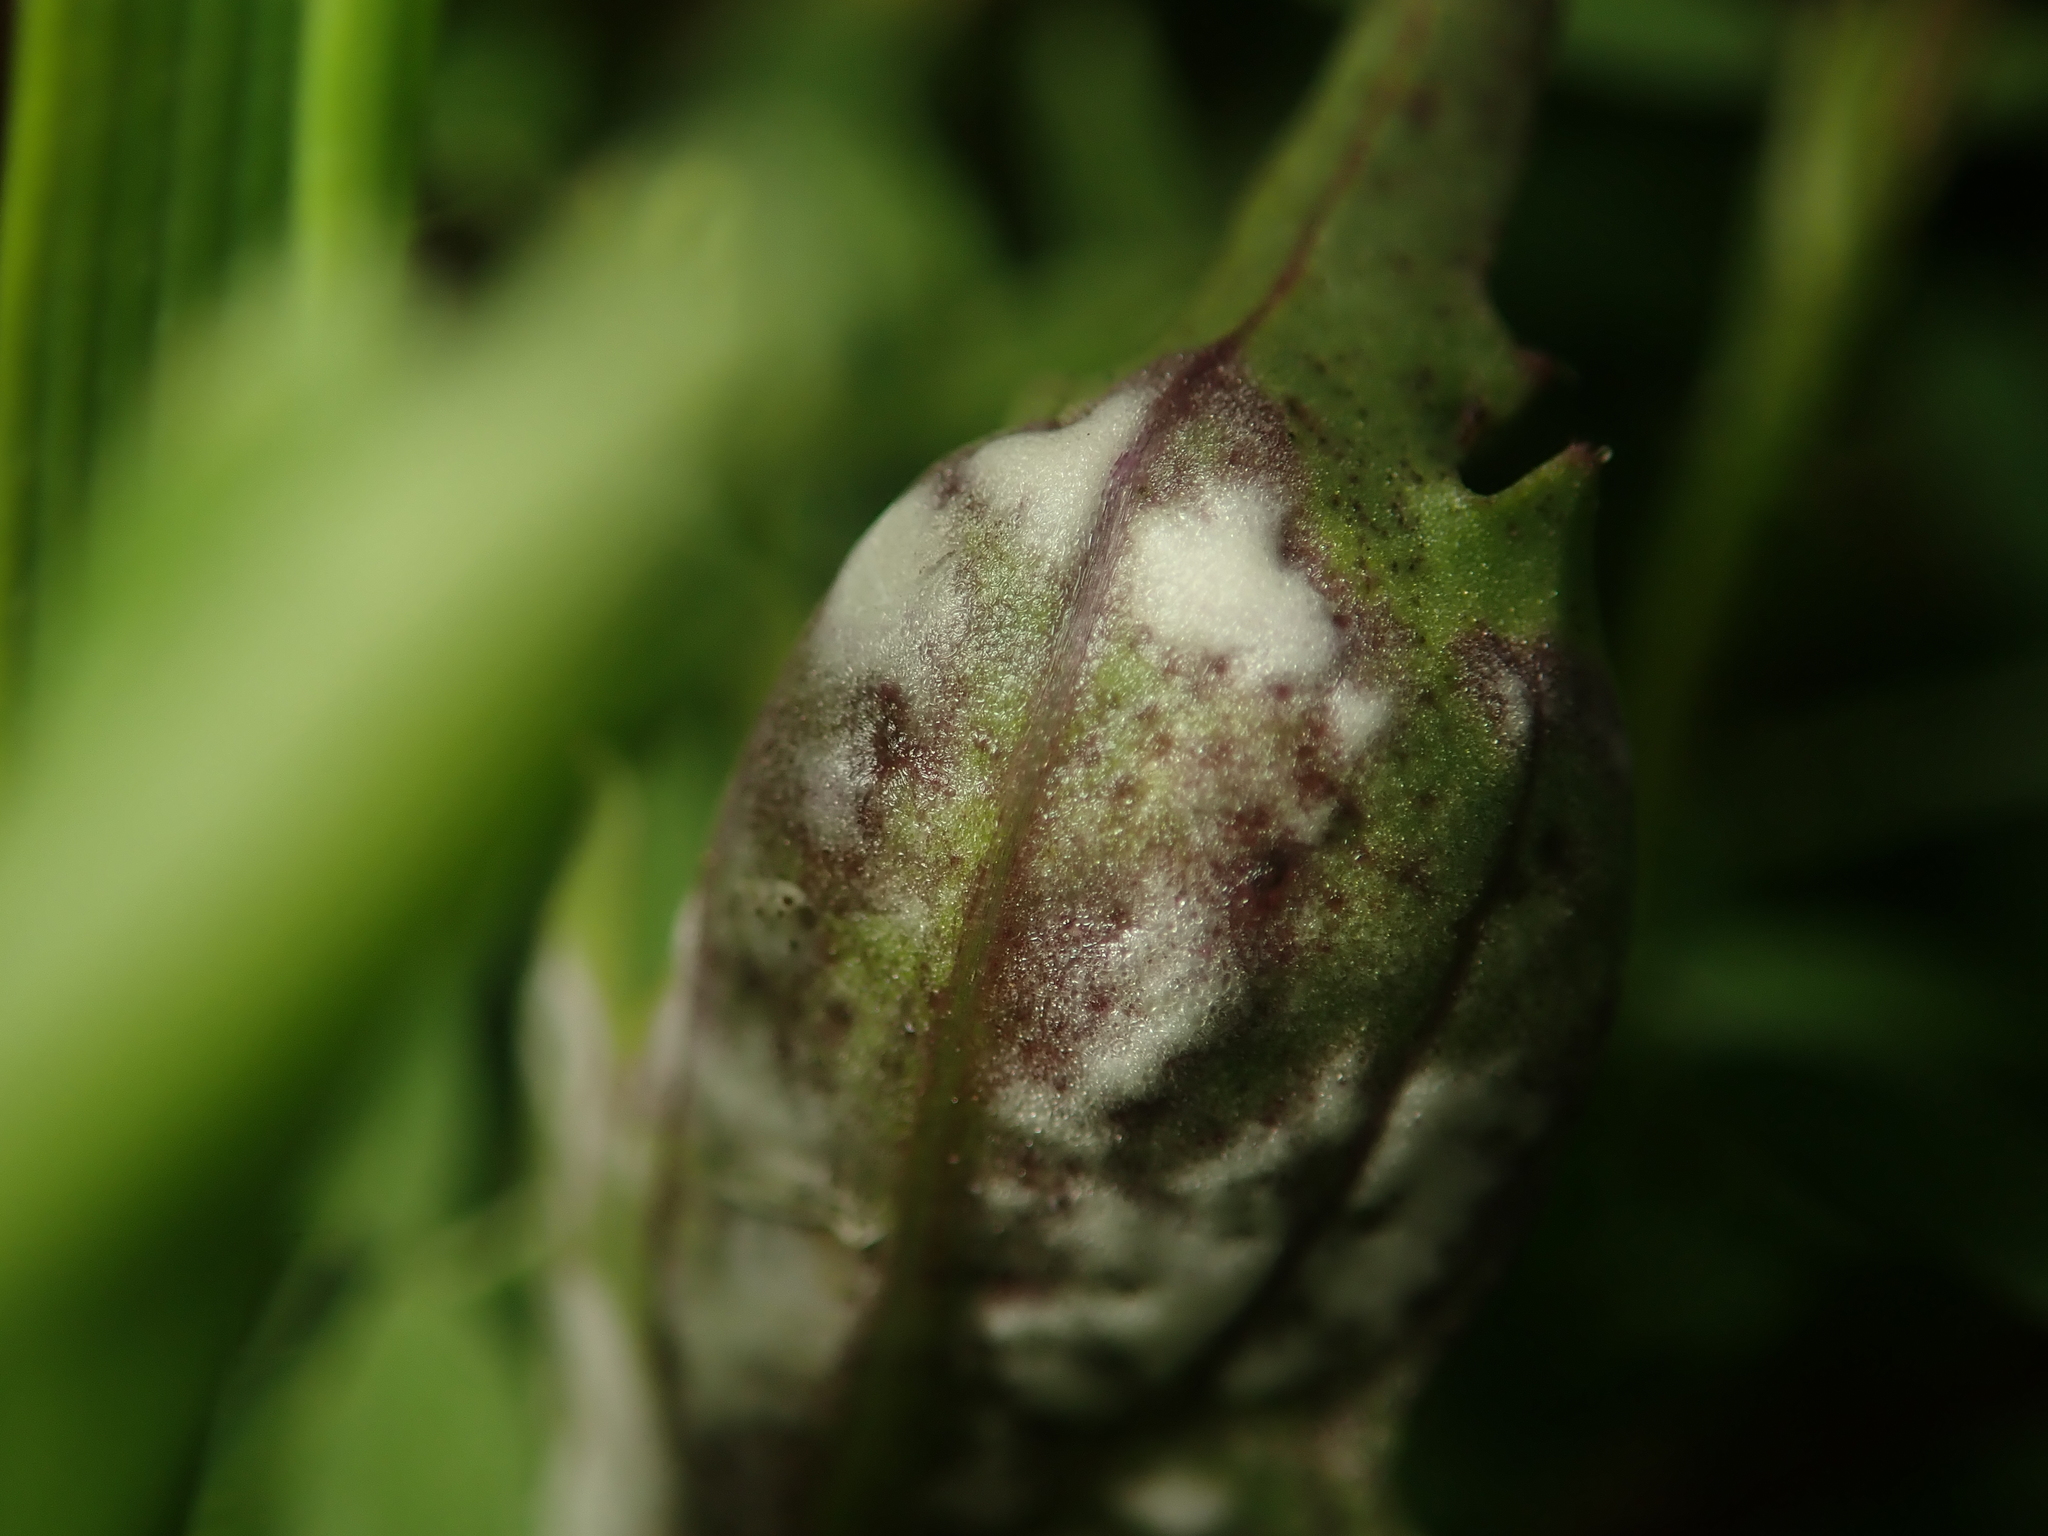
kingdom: Chromista
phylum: Oomycota
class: Peronosporea
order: Albuginales
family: Albuginaceae
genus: Albugo
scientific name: Albugo candida
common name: Crucifer white blister
